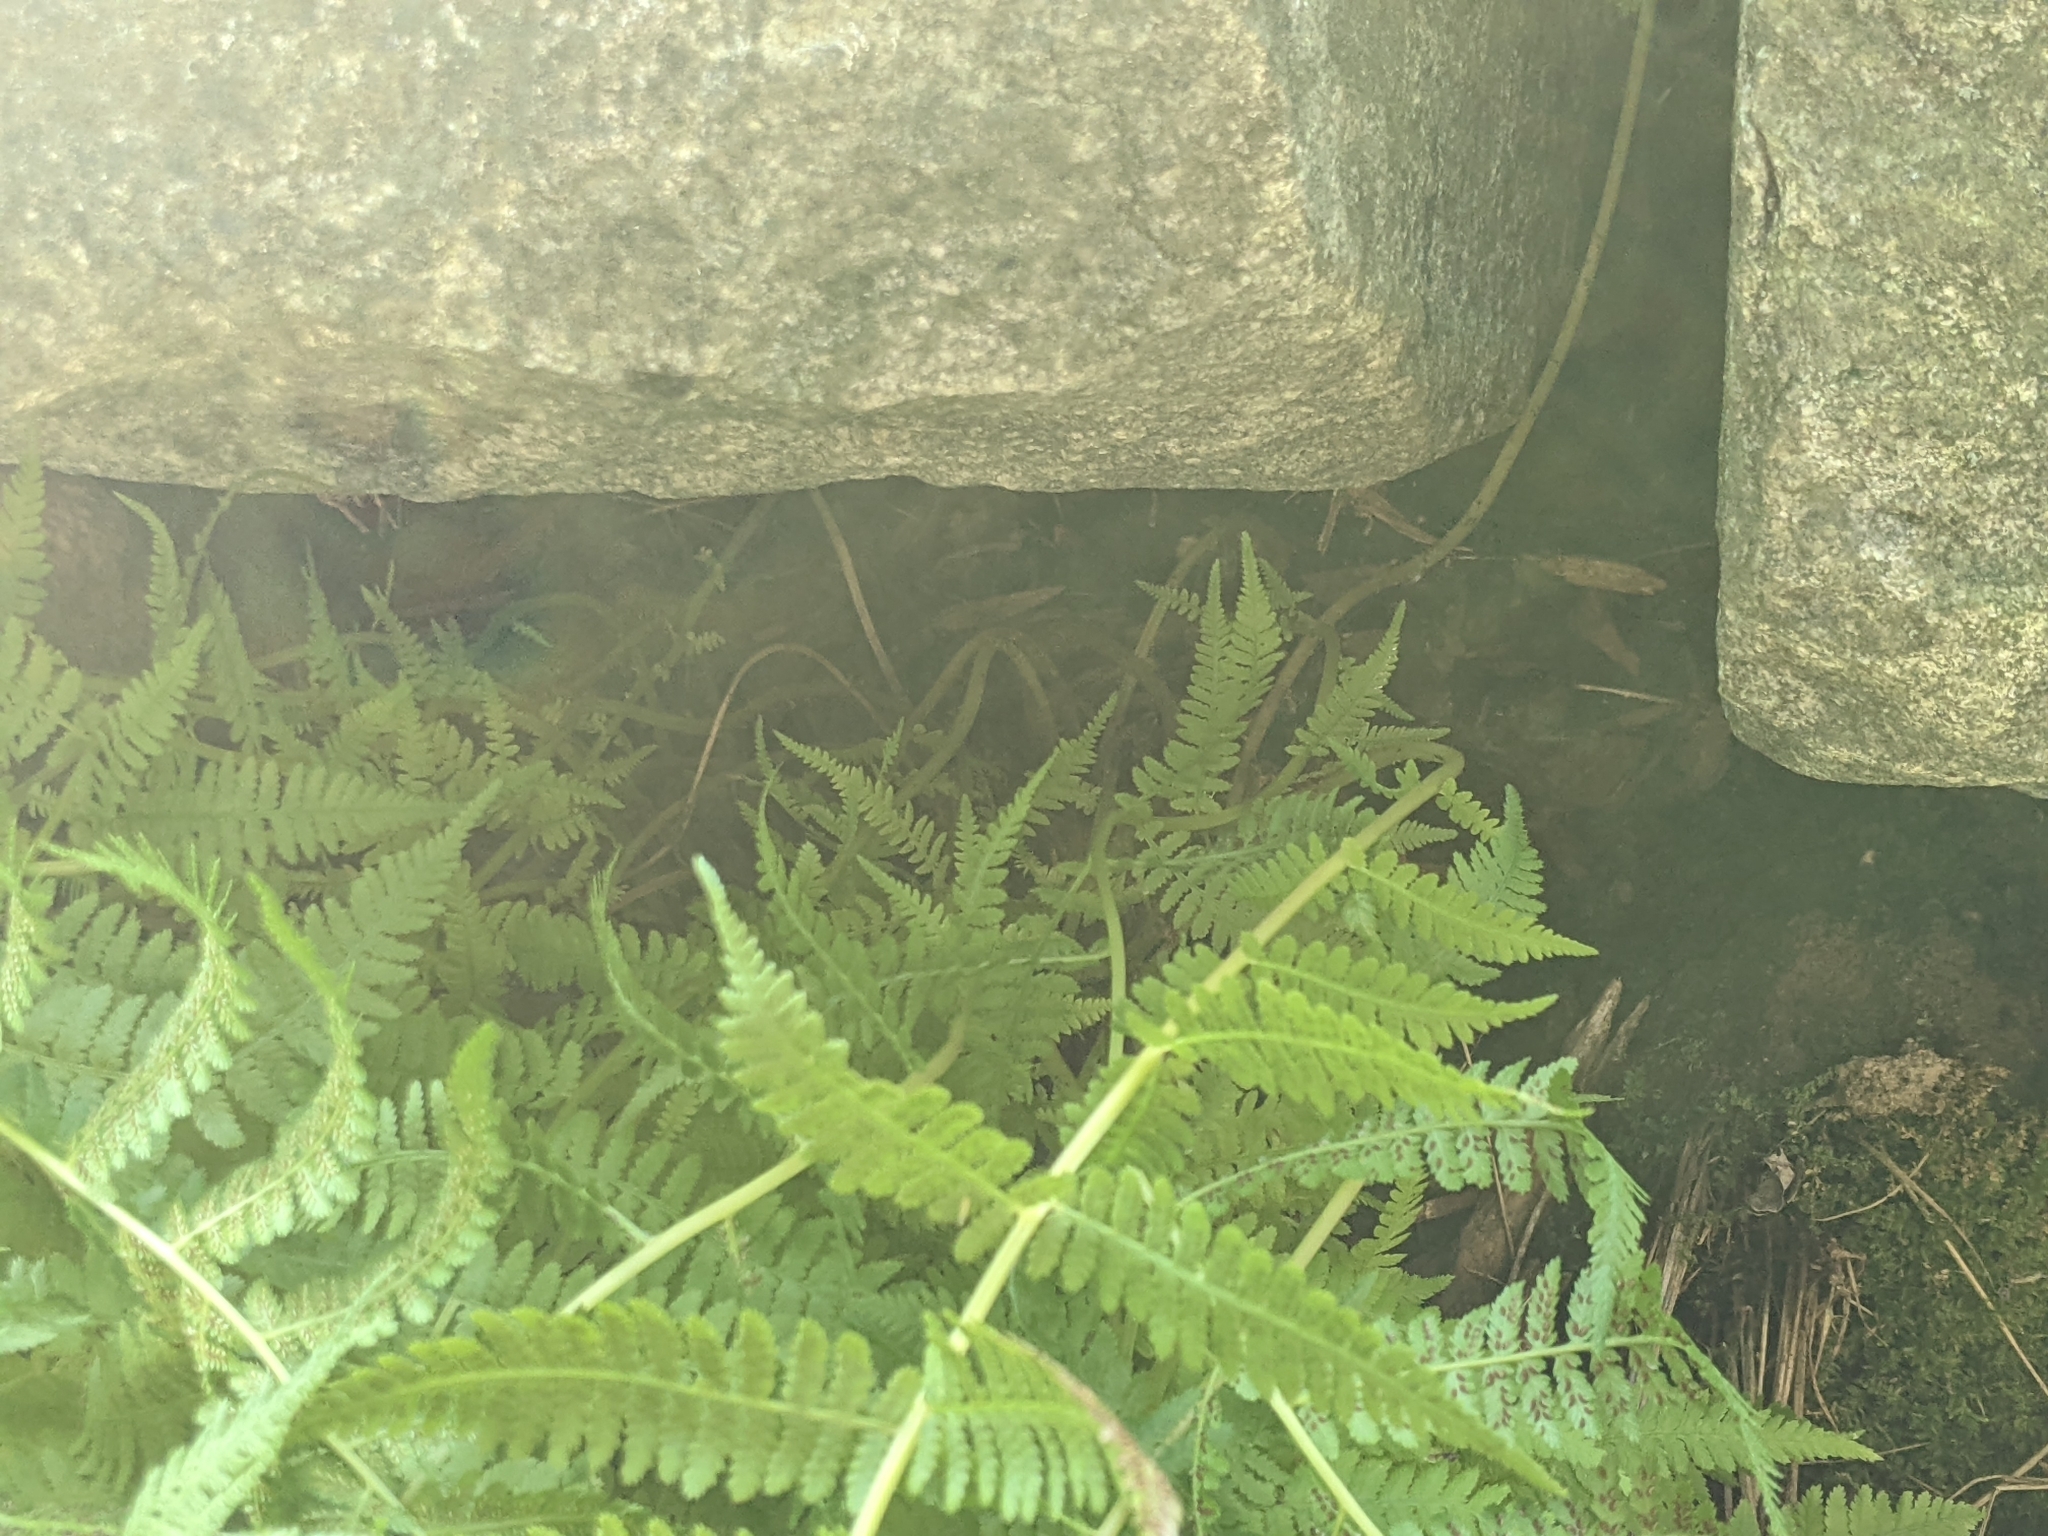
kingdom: Plantae
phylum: Tracheophyta
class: Polypodiopsida
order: Polypodiales
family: Athyriaceae
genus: Athyrium
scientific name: Athyrium angustum
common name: Northern lady fern
